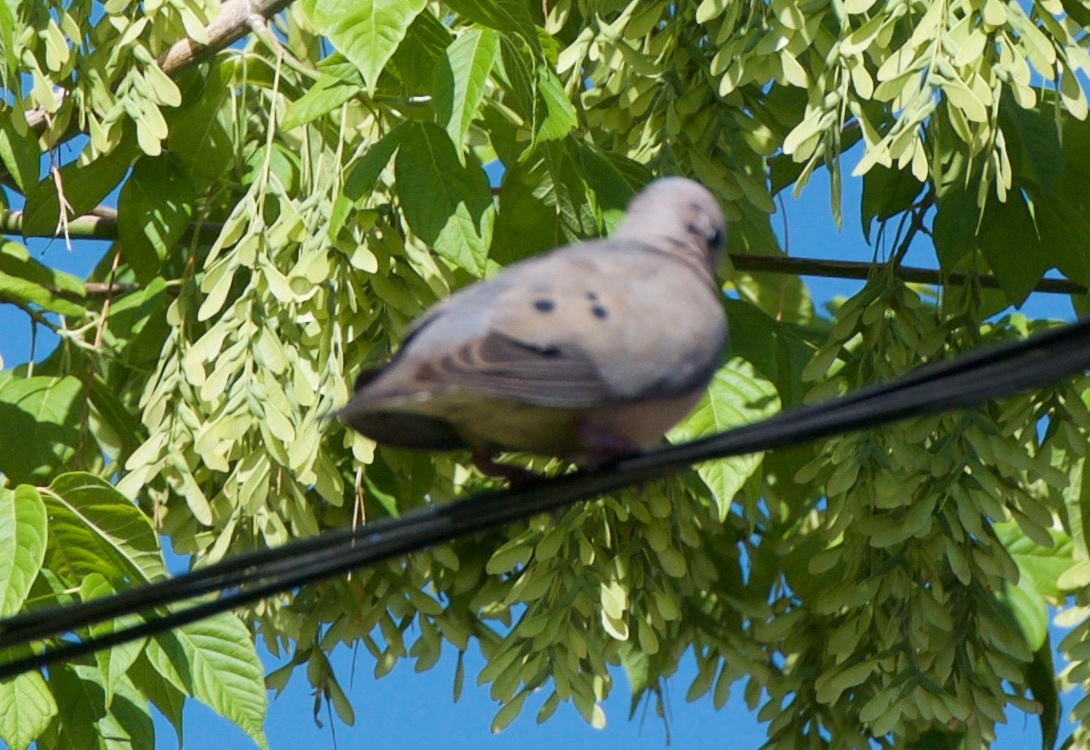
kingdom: Animalia
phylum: Chordata
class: Aves
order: Columbiformes
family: Columbidae
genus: Zenaida
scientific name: Zenaida auriculata
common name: Eared dove
